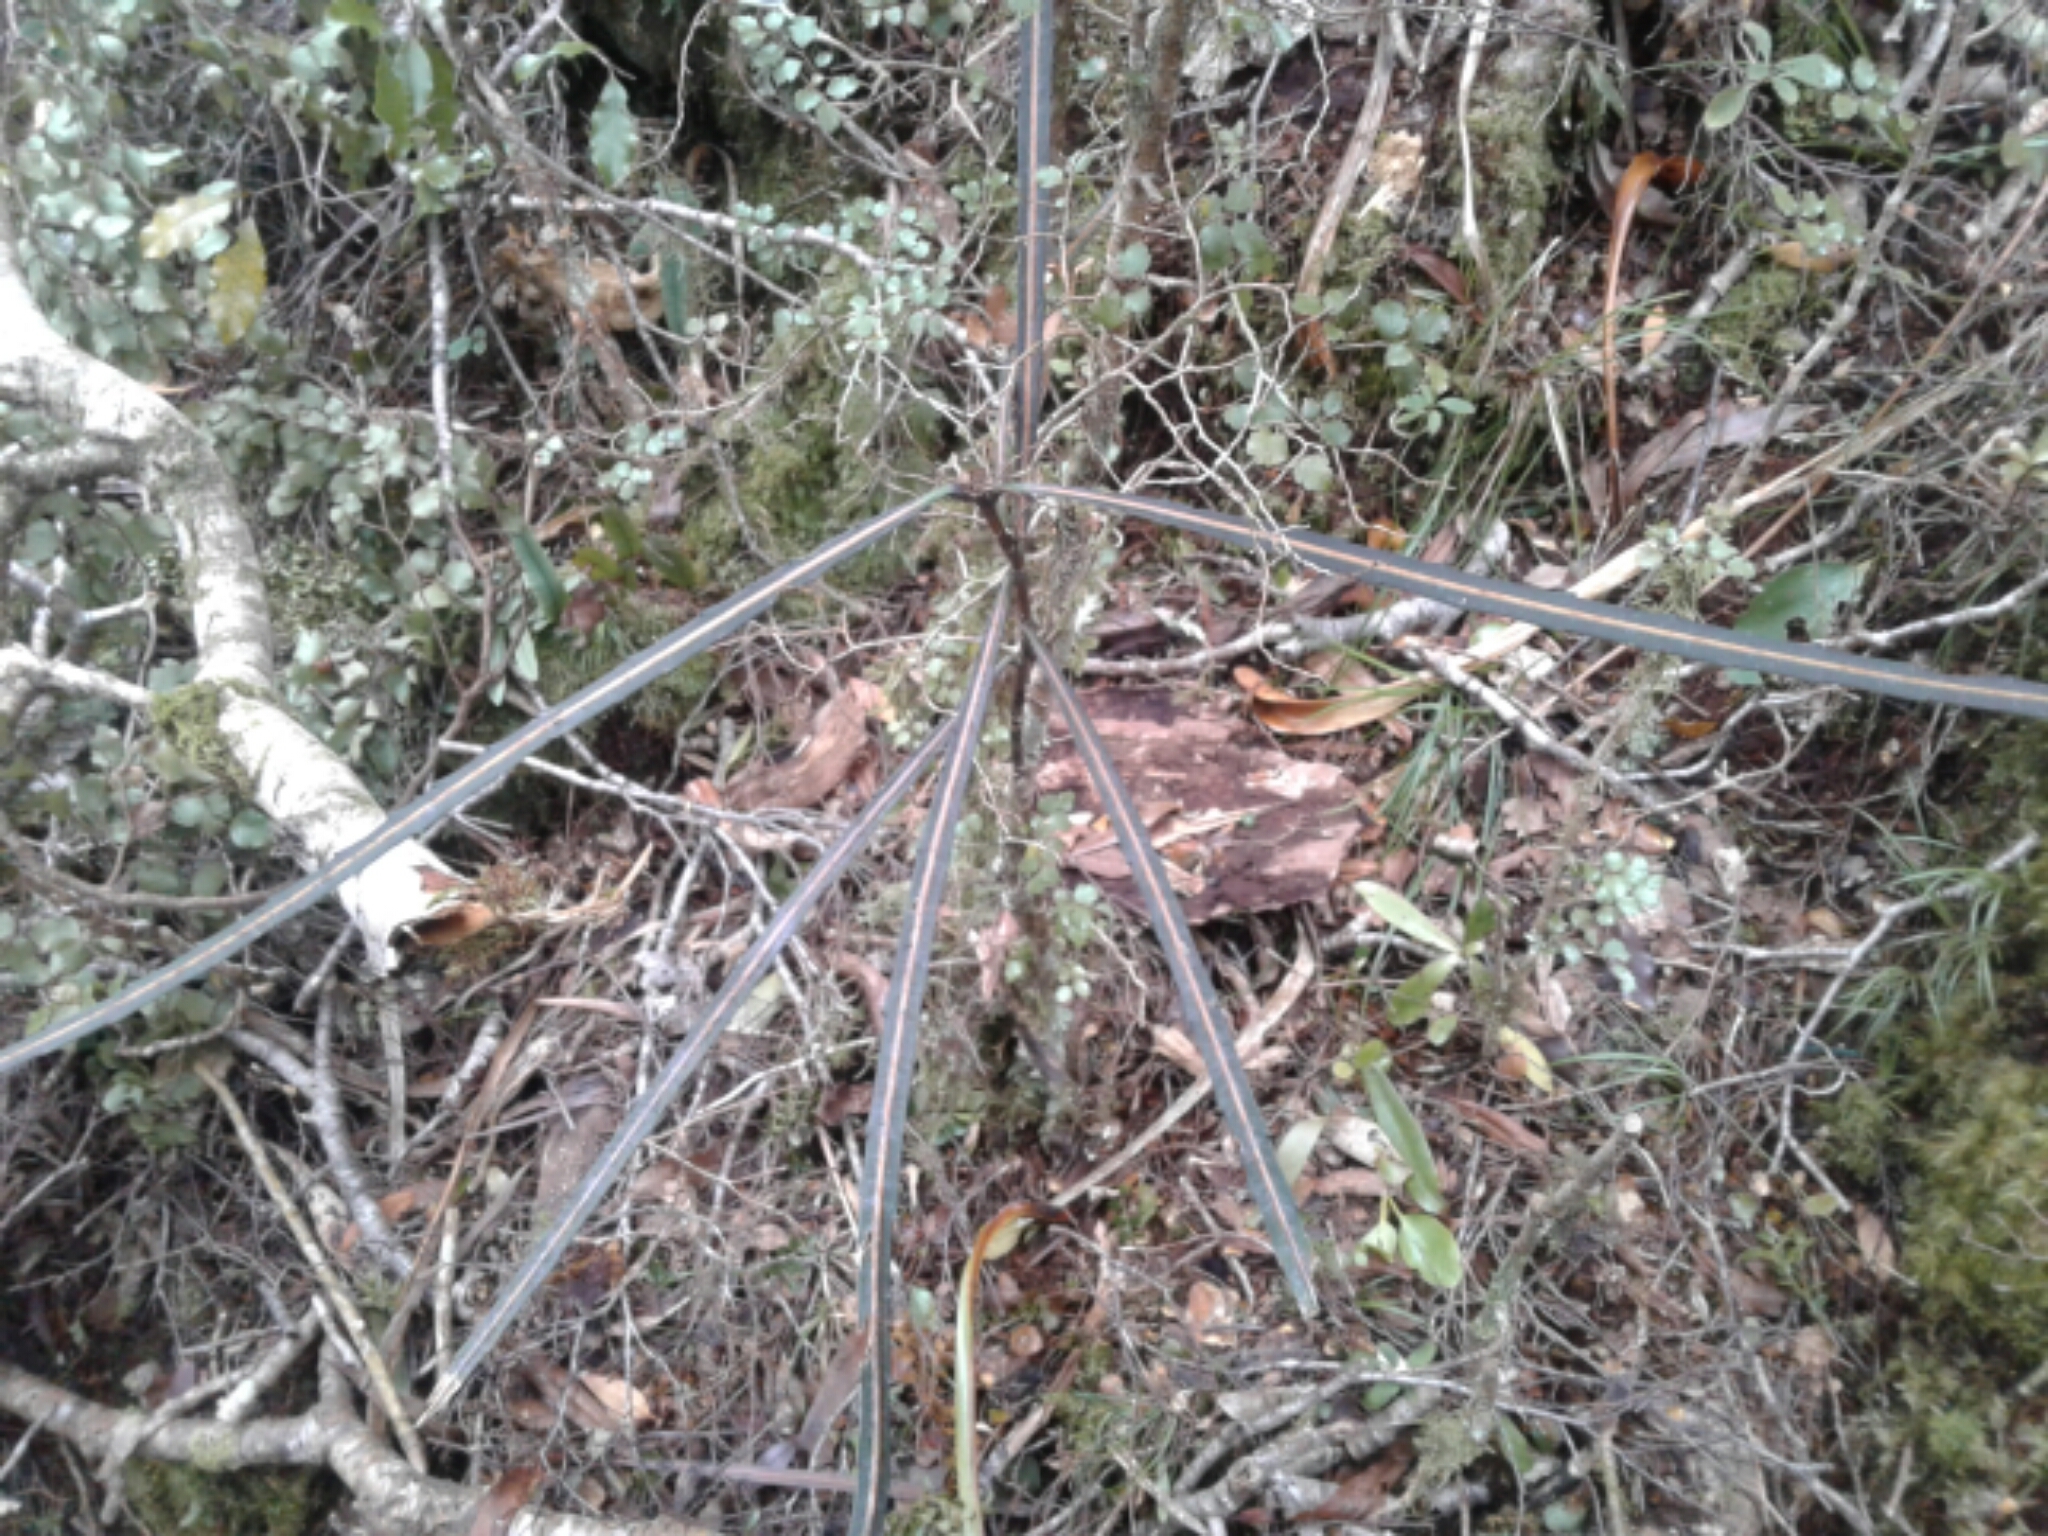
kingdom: Plantae
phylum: Tracheophyta
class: Magnoliopsida
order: Apiales
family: Araliaceae
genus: Pseudopanax
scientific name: Pseudopanax crassifolius
